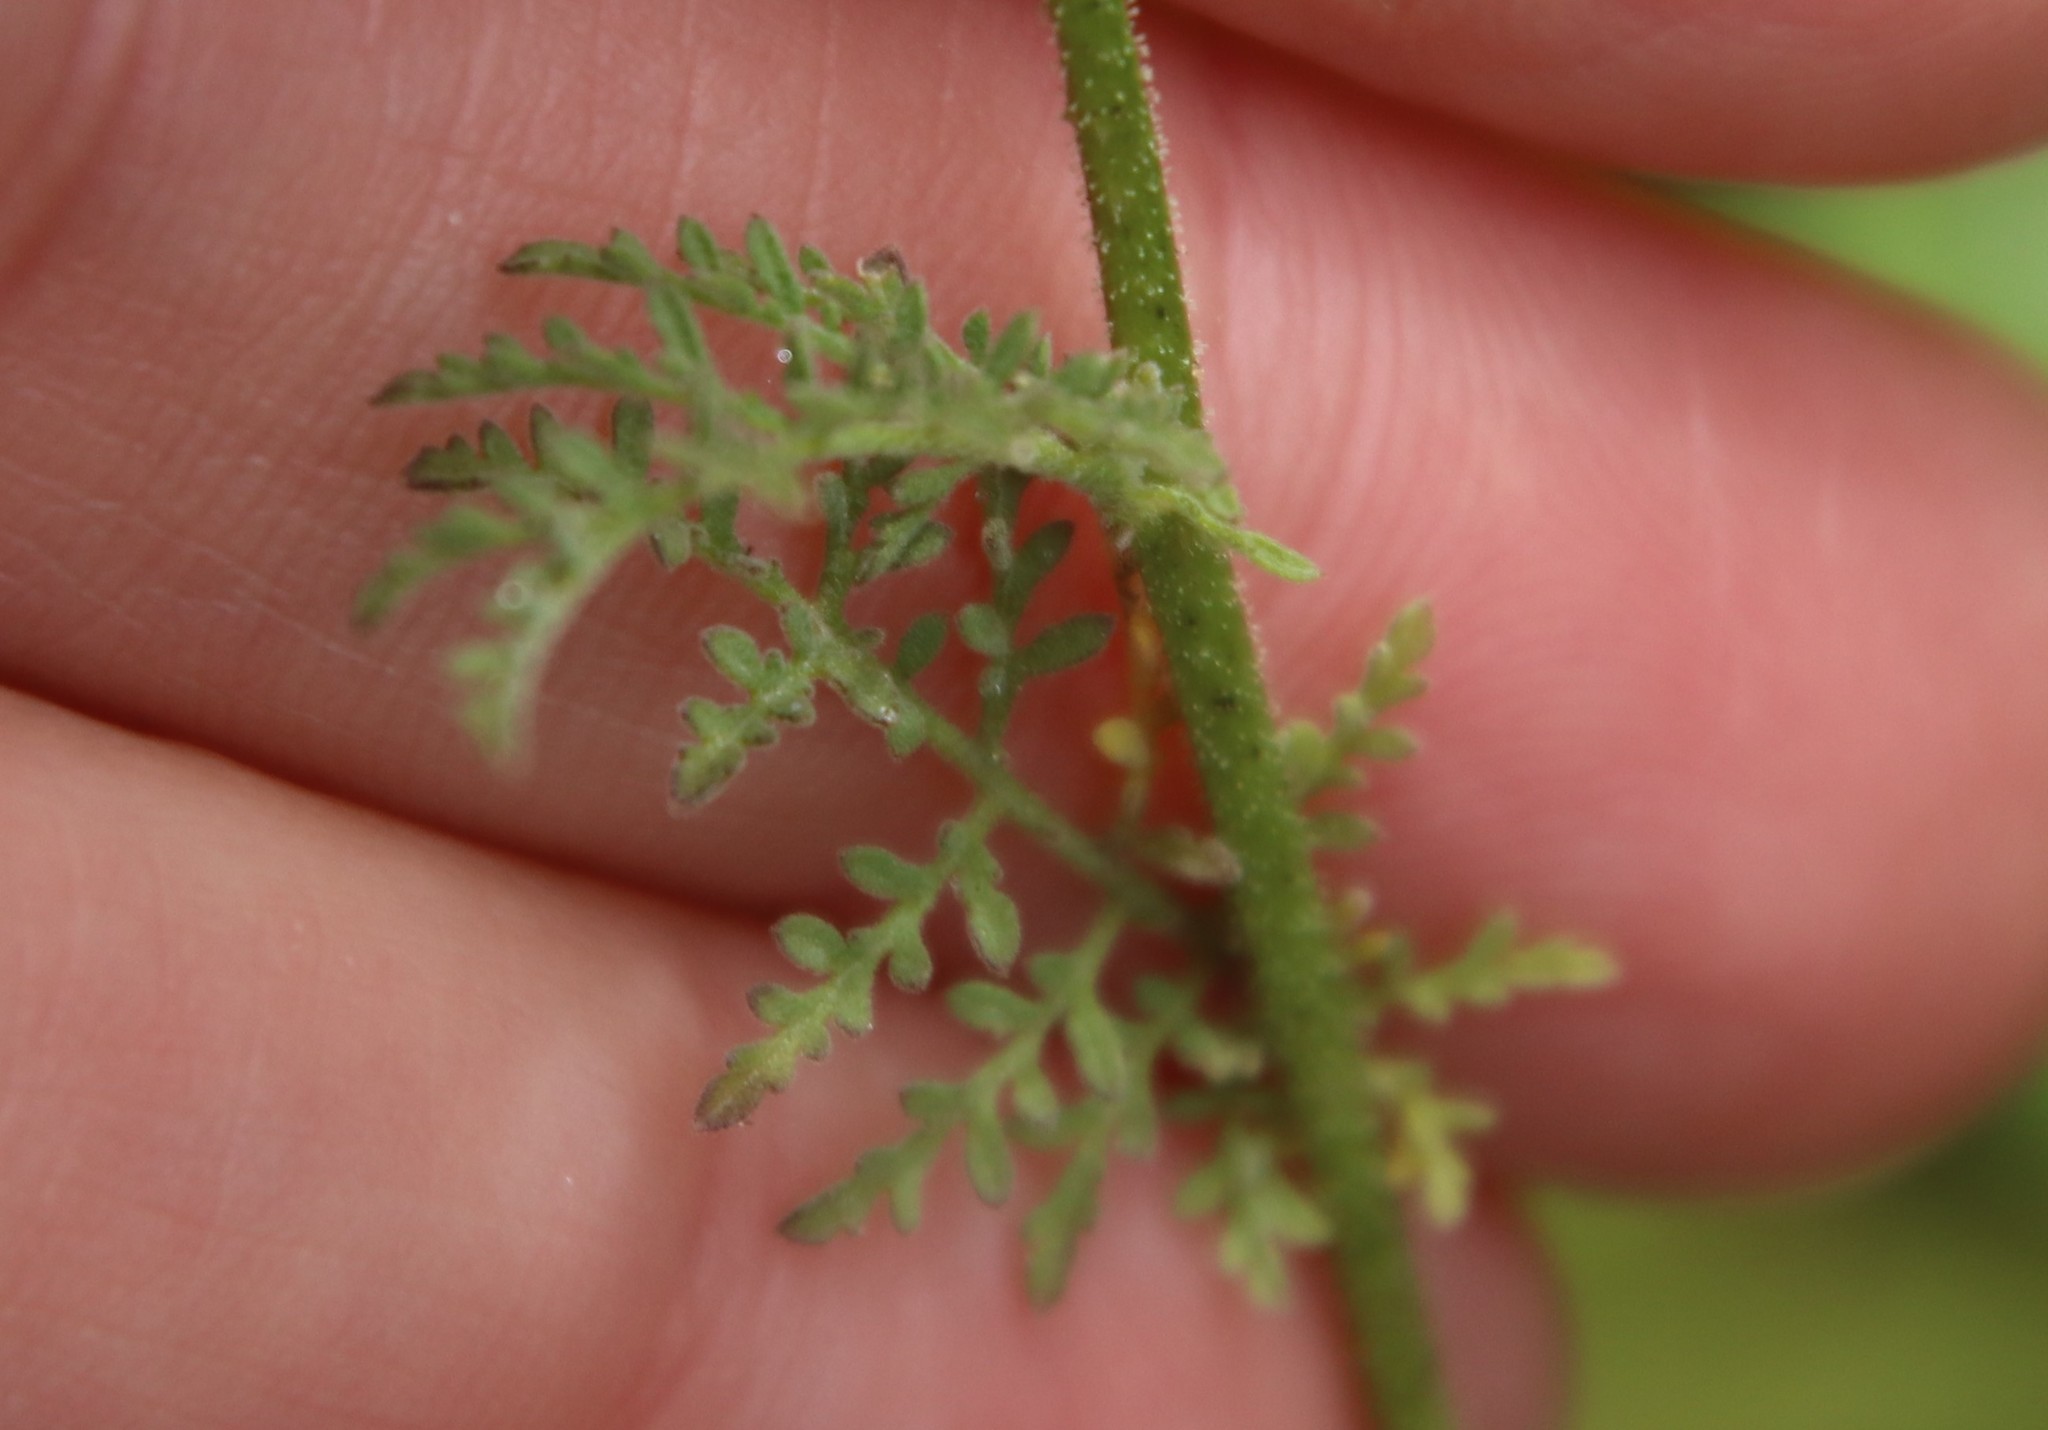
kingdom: Plantae
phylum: Tracheophyta
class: Magnoliopsida
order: Brassicales
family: Brassicaceae
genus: Descurainia
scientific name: Descurainia pinnata
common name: Western tansy mustard
